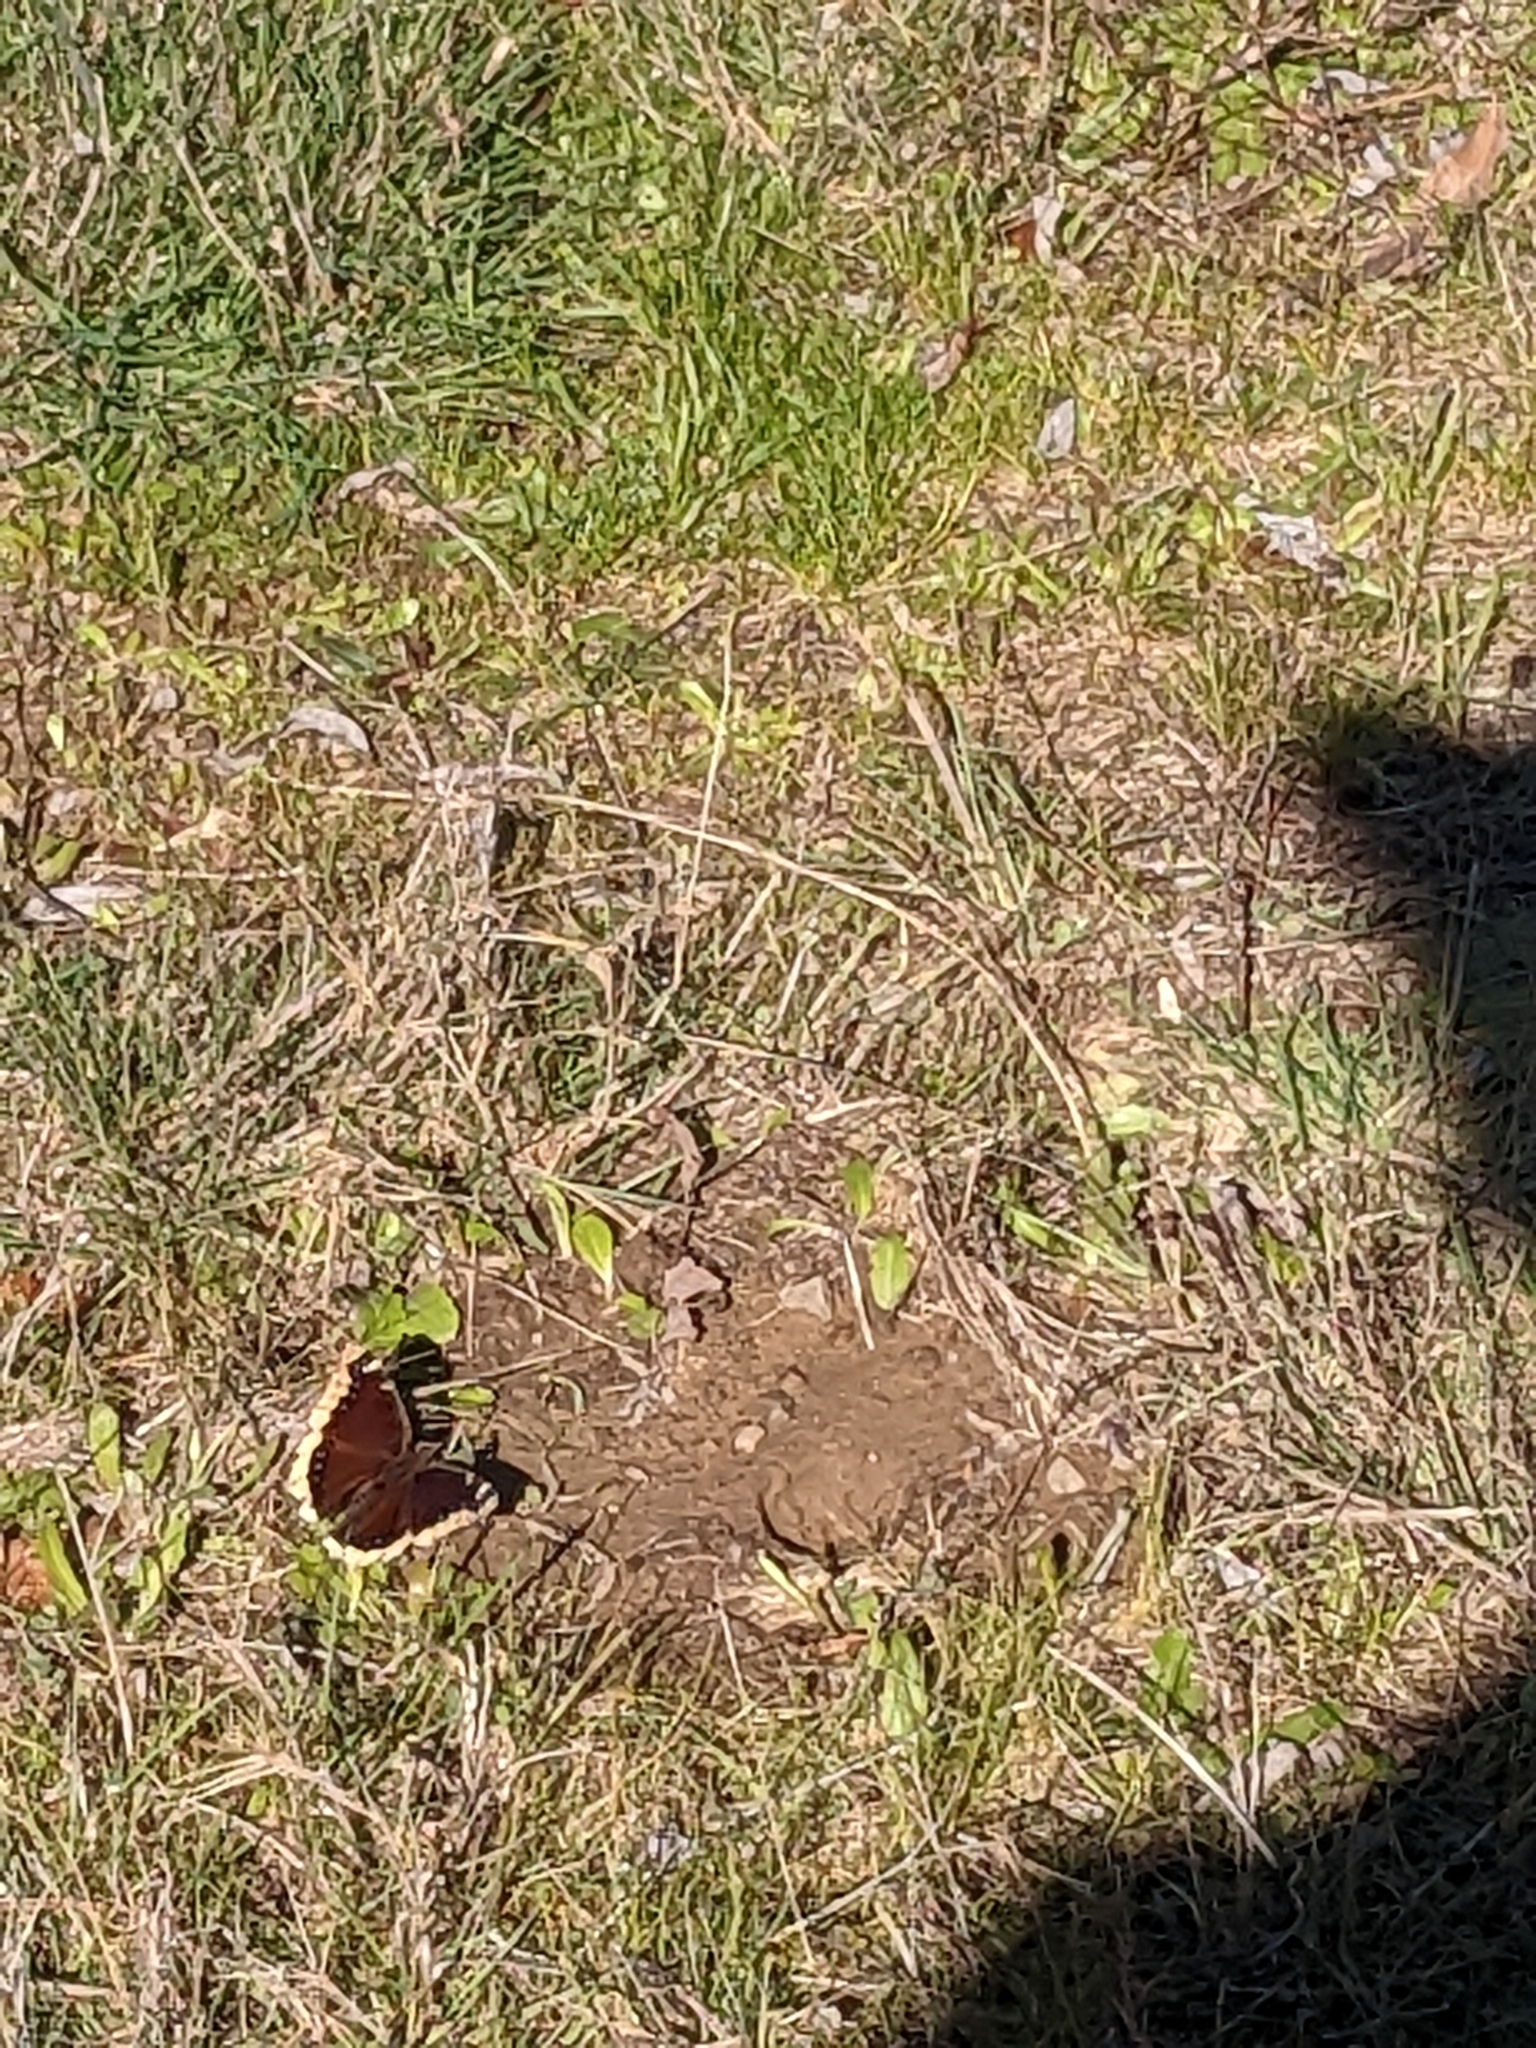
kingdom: Animalia
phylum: Arthropoda
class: Insecta
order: Lepidoptera
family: Nymphalidae
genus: Nymphalis
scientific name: Nymphalis antiopa
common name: Camberwell beauty
